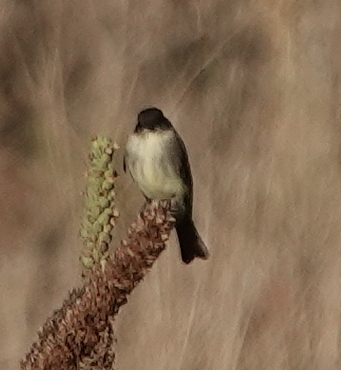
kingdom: Animalia
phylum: Chordata
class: Aves
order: Passeriformes
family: Tyrannidae
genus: Sayornis
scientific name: Sayornis phoebe
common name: Eastern phoebe
